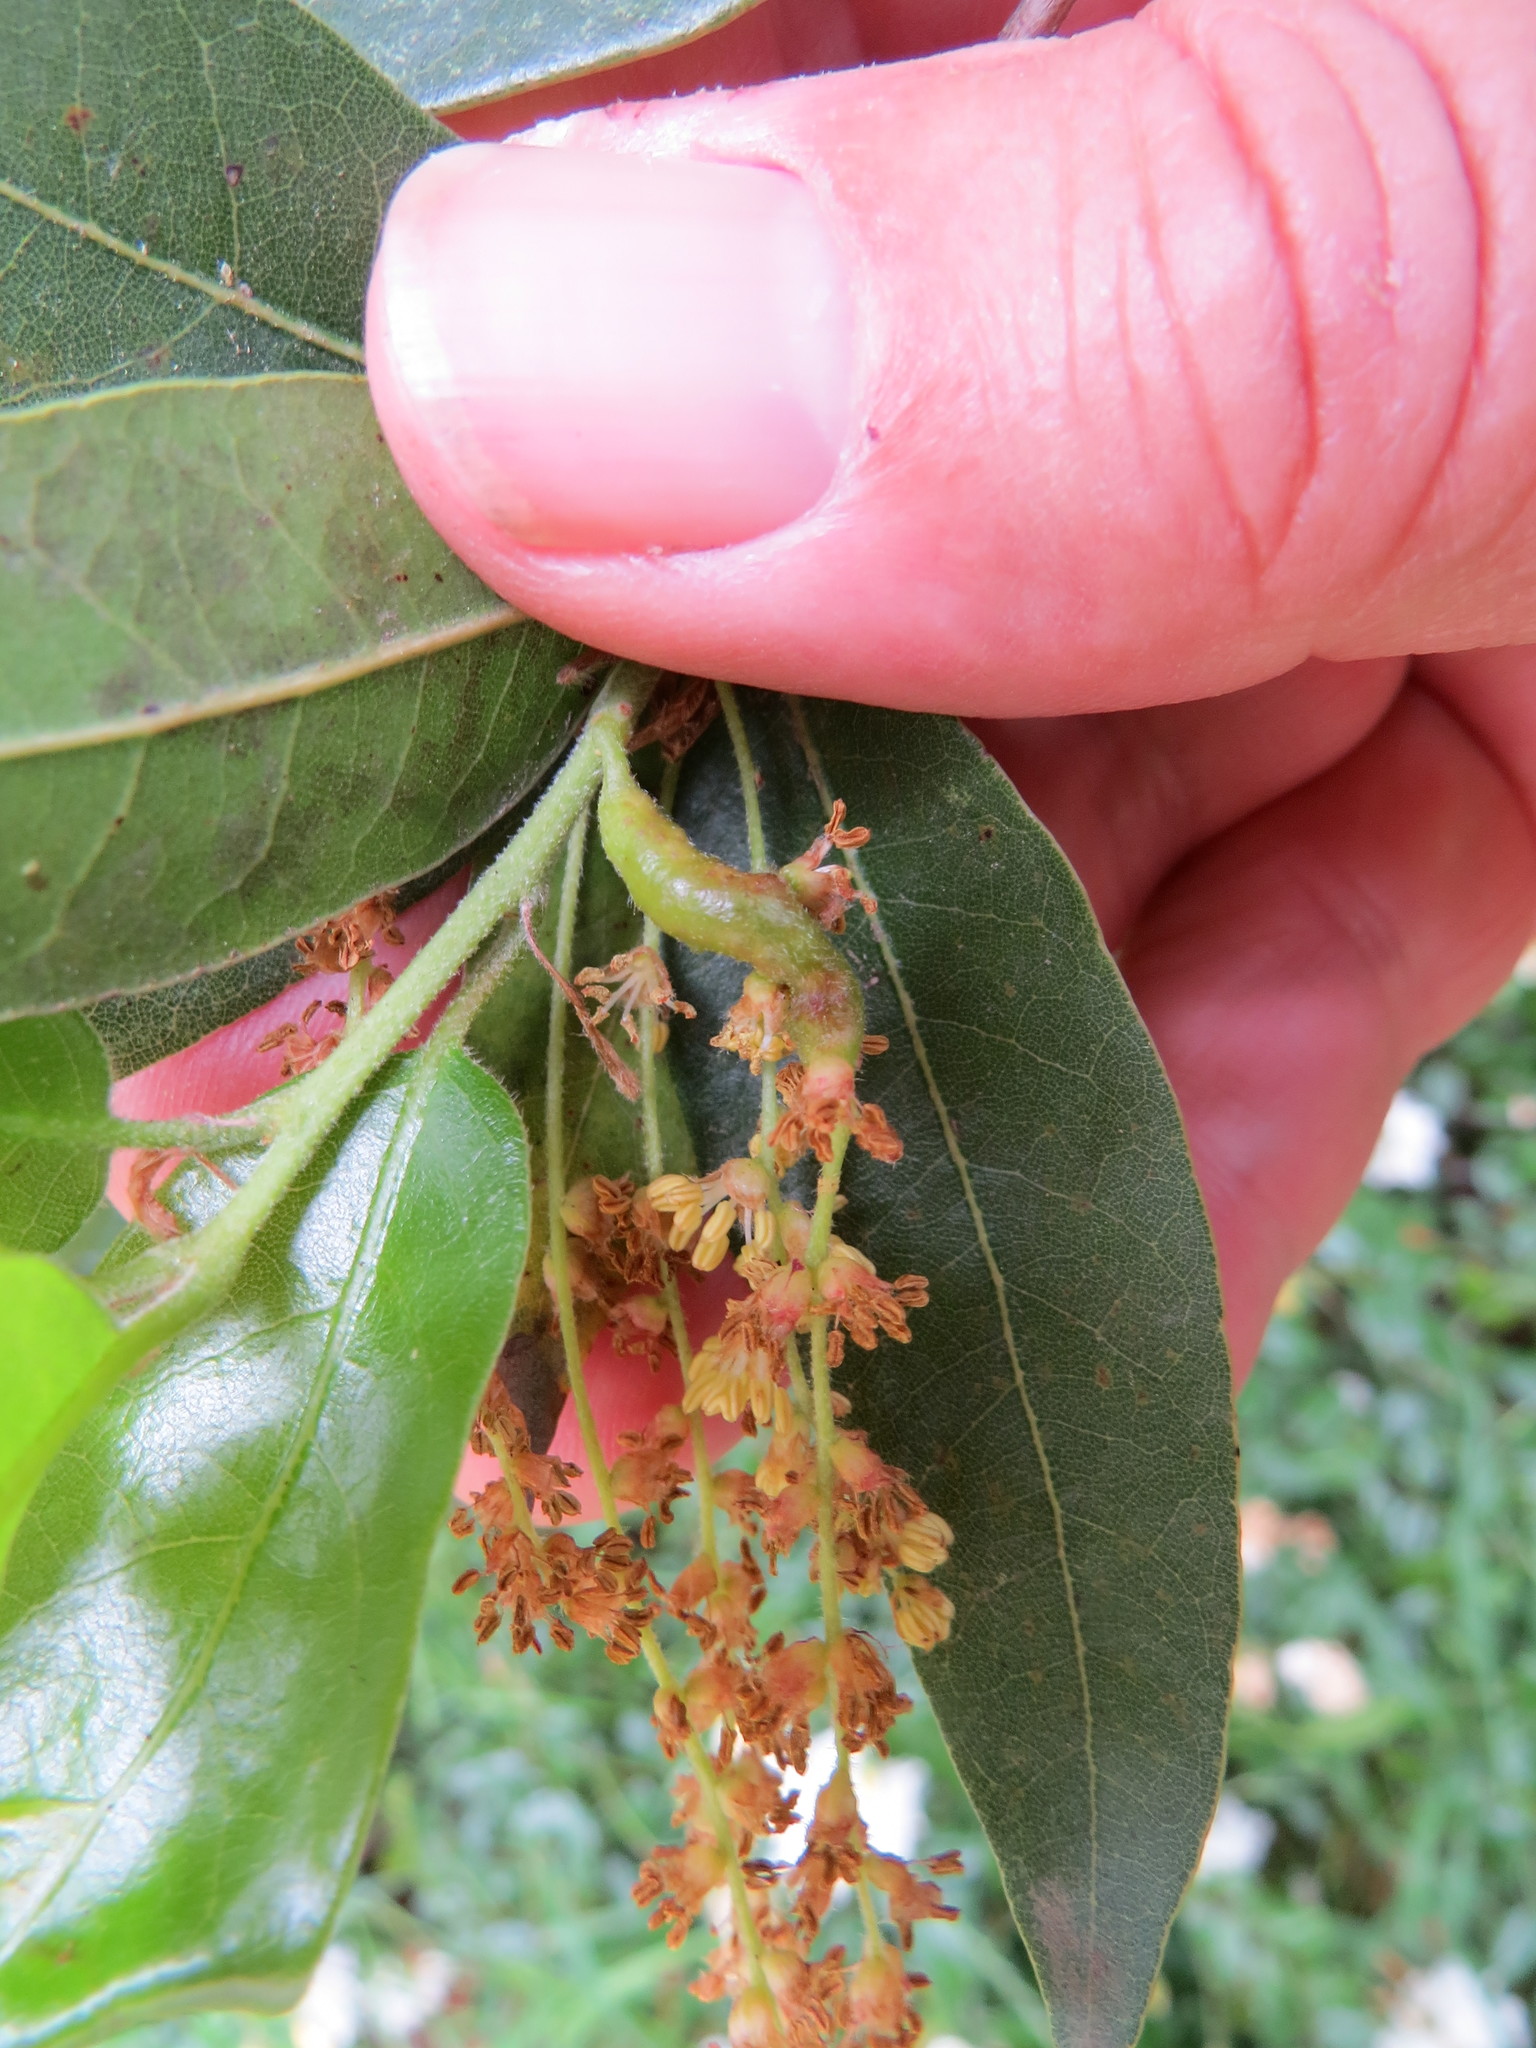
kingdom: Animalia
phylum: Arthropoda
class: Insecta
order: Hymenoptera
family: Cynipidae
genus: Callirhytis
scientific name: Callirhytis
